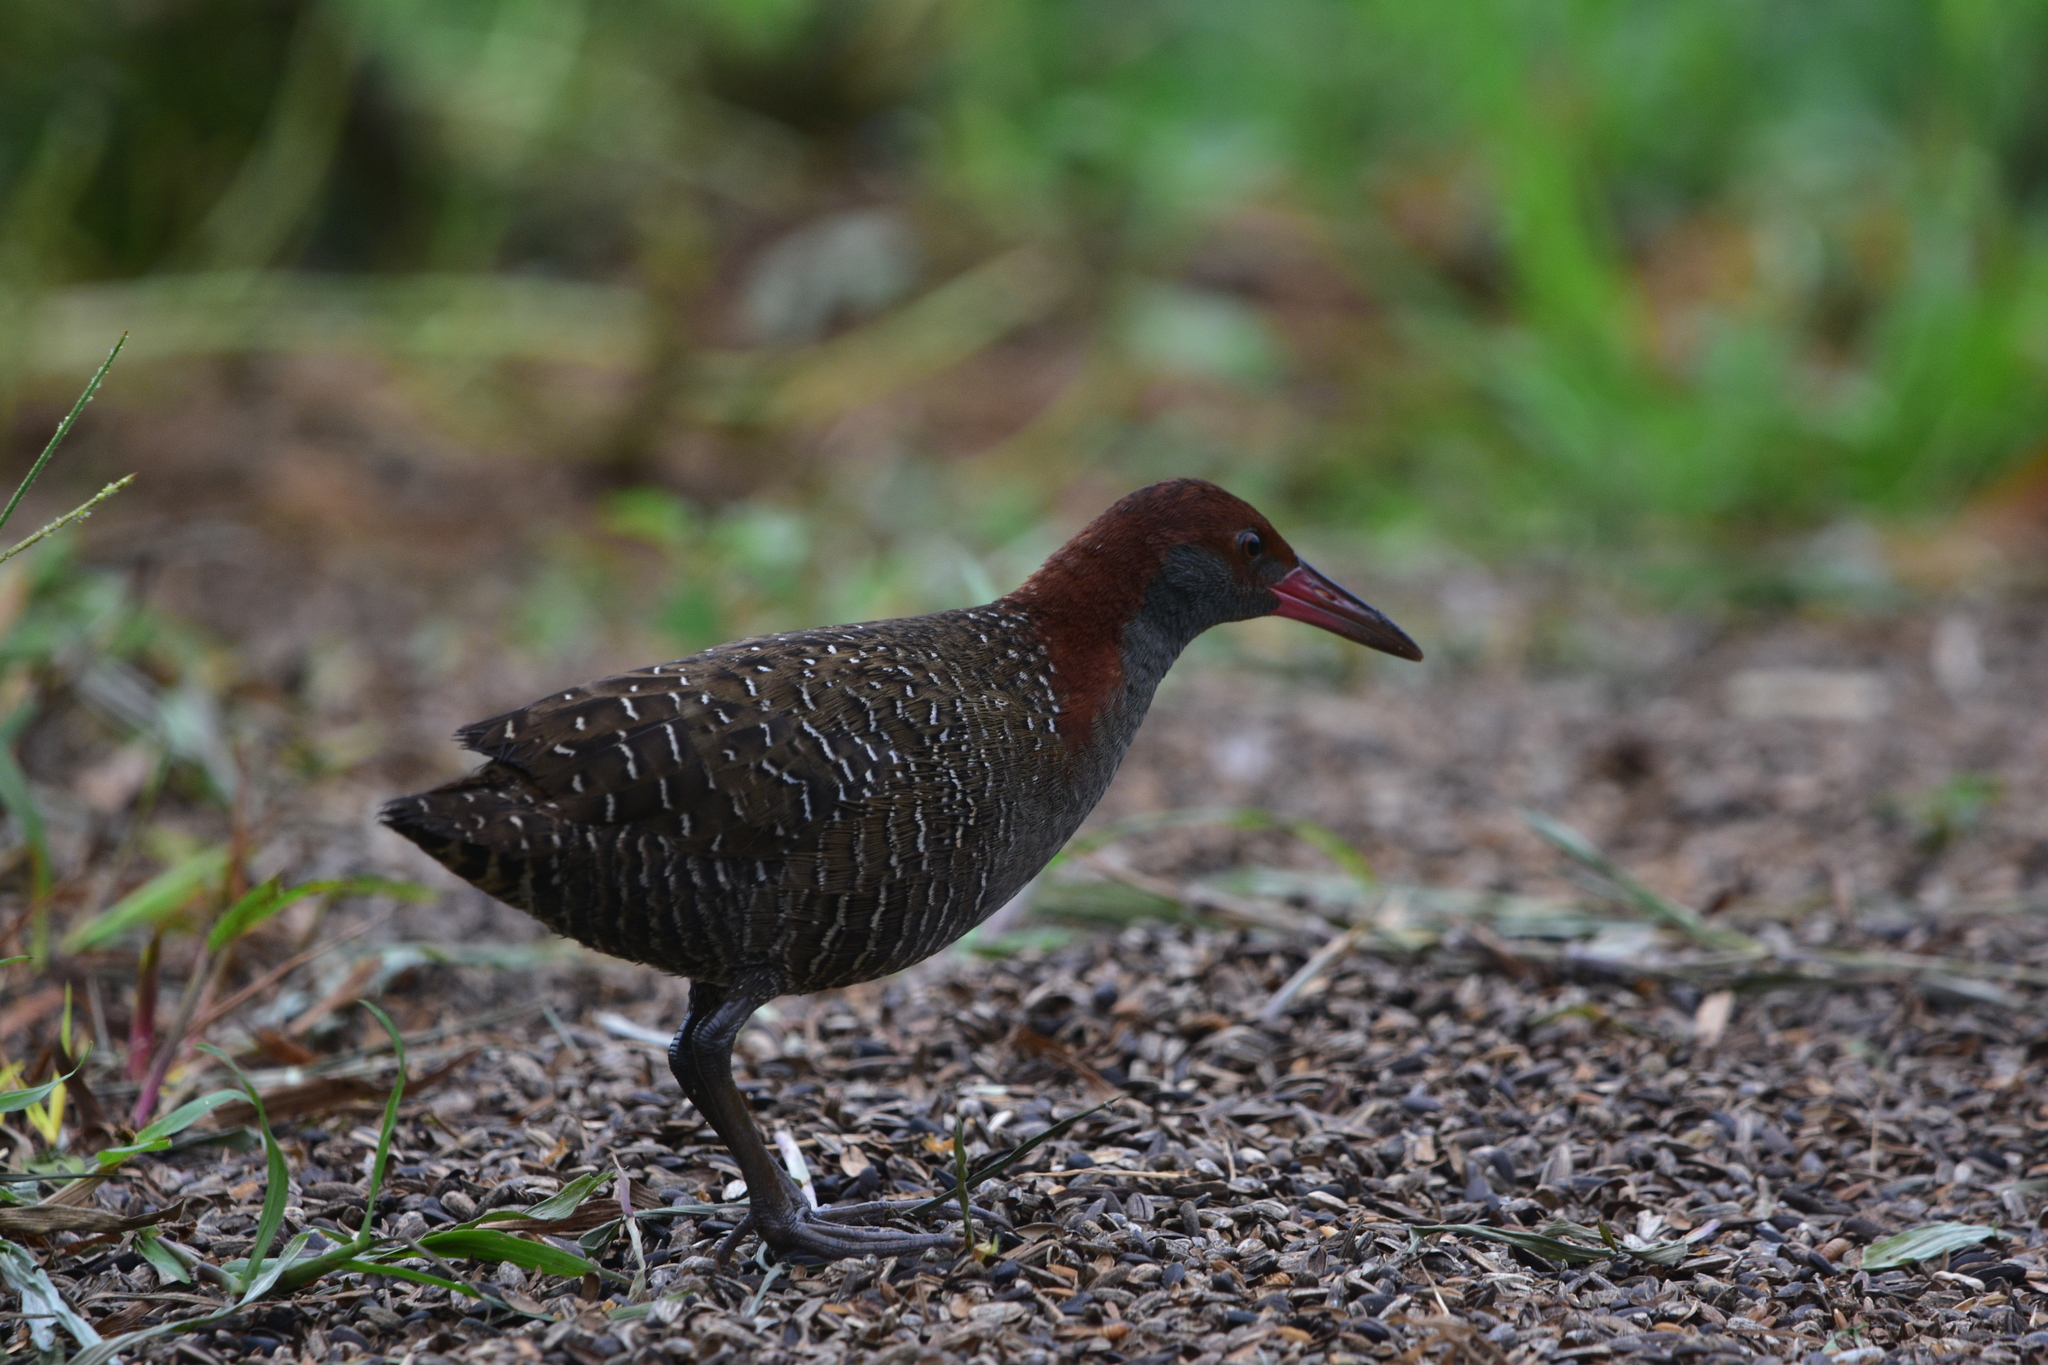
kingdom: Animalia
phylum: Chordata
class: Aves
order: Gruiformes
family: Rallidae
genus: Gallirallus
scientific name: Gallirallus striatus
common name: Slaty-breasted rail
